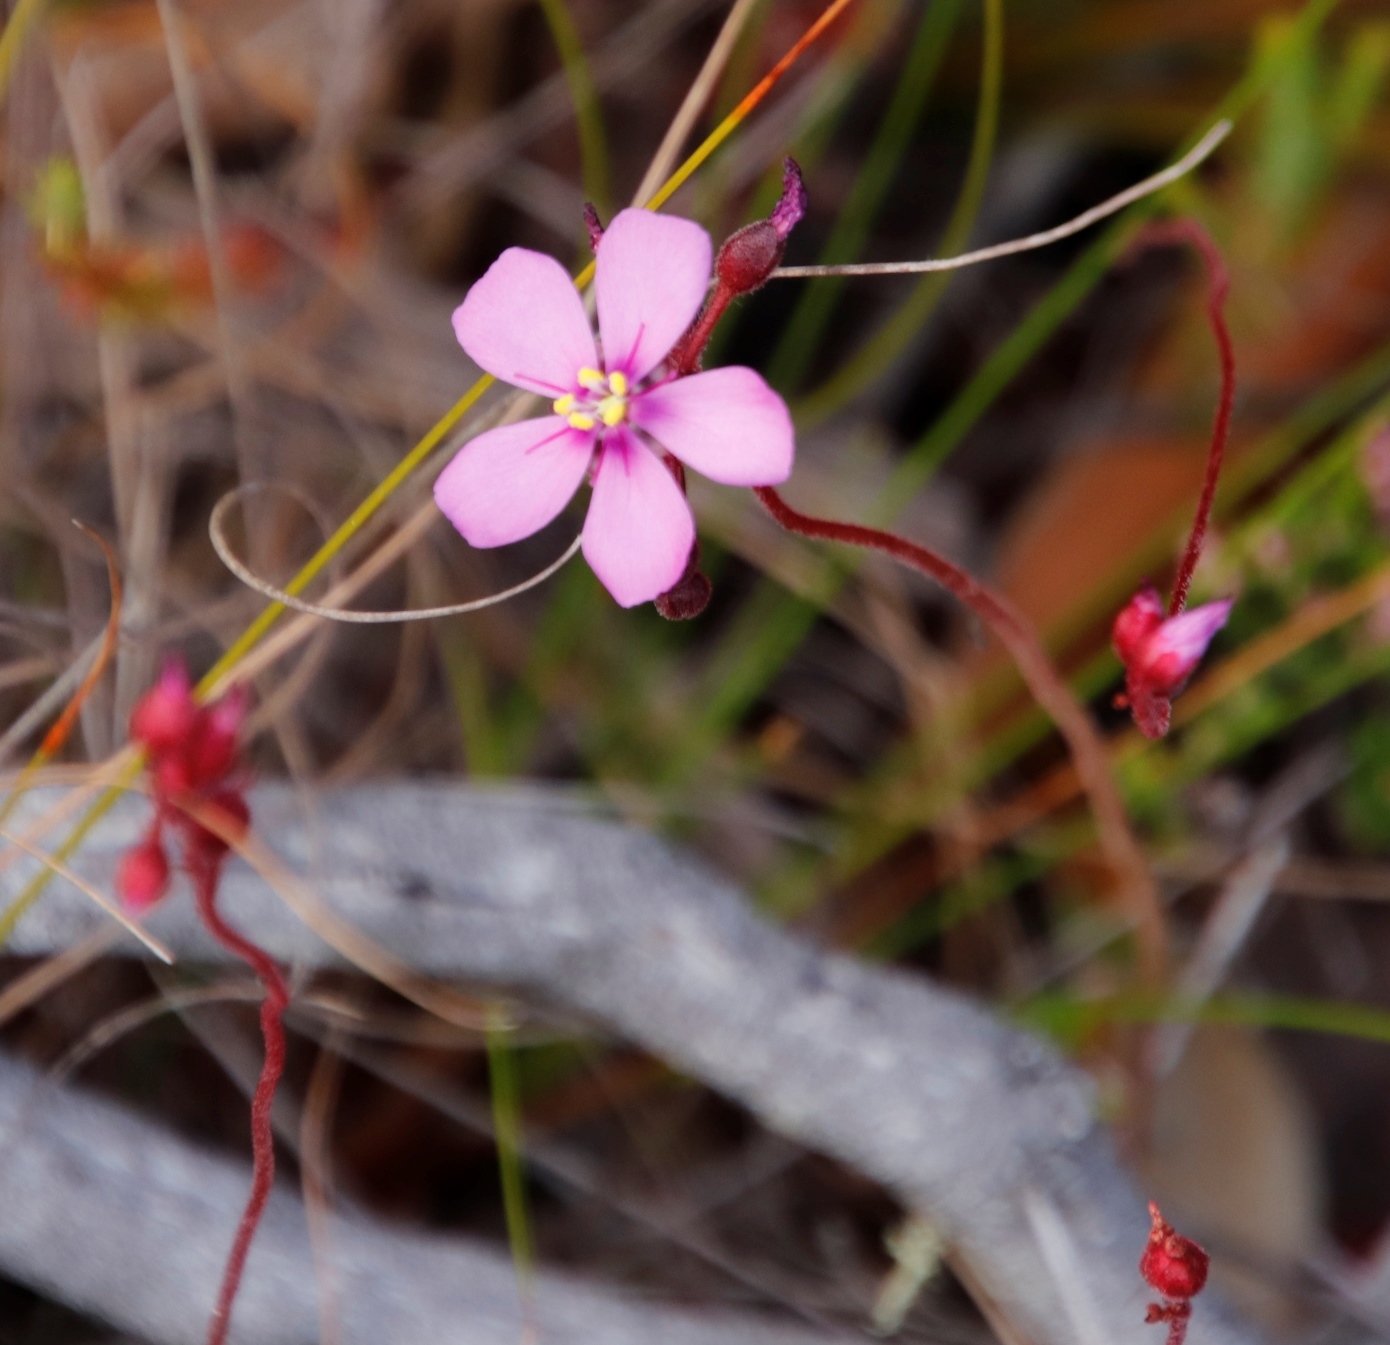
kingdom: Plantae
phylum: Tracheophyta
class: Magnoliopsida
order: Caryophyllales
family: Droseraceae
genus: Drosera
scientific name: Drosera aliciae
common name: Alice sundew
